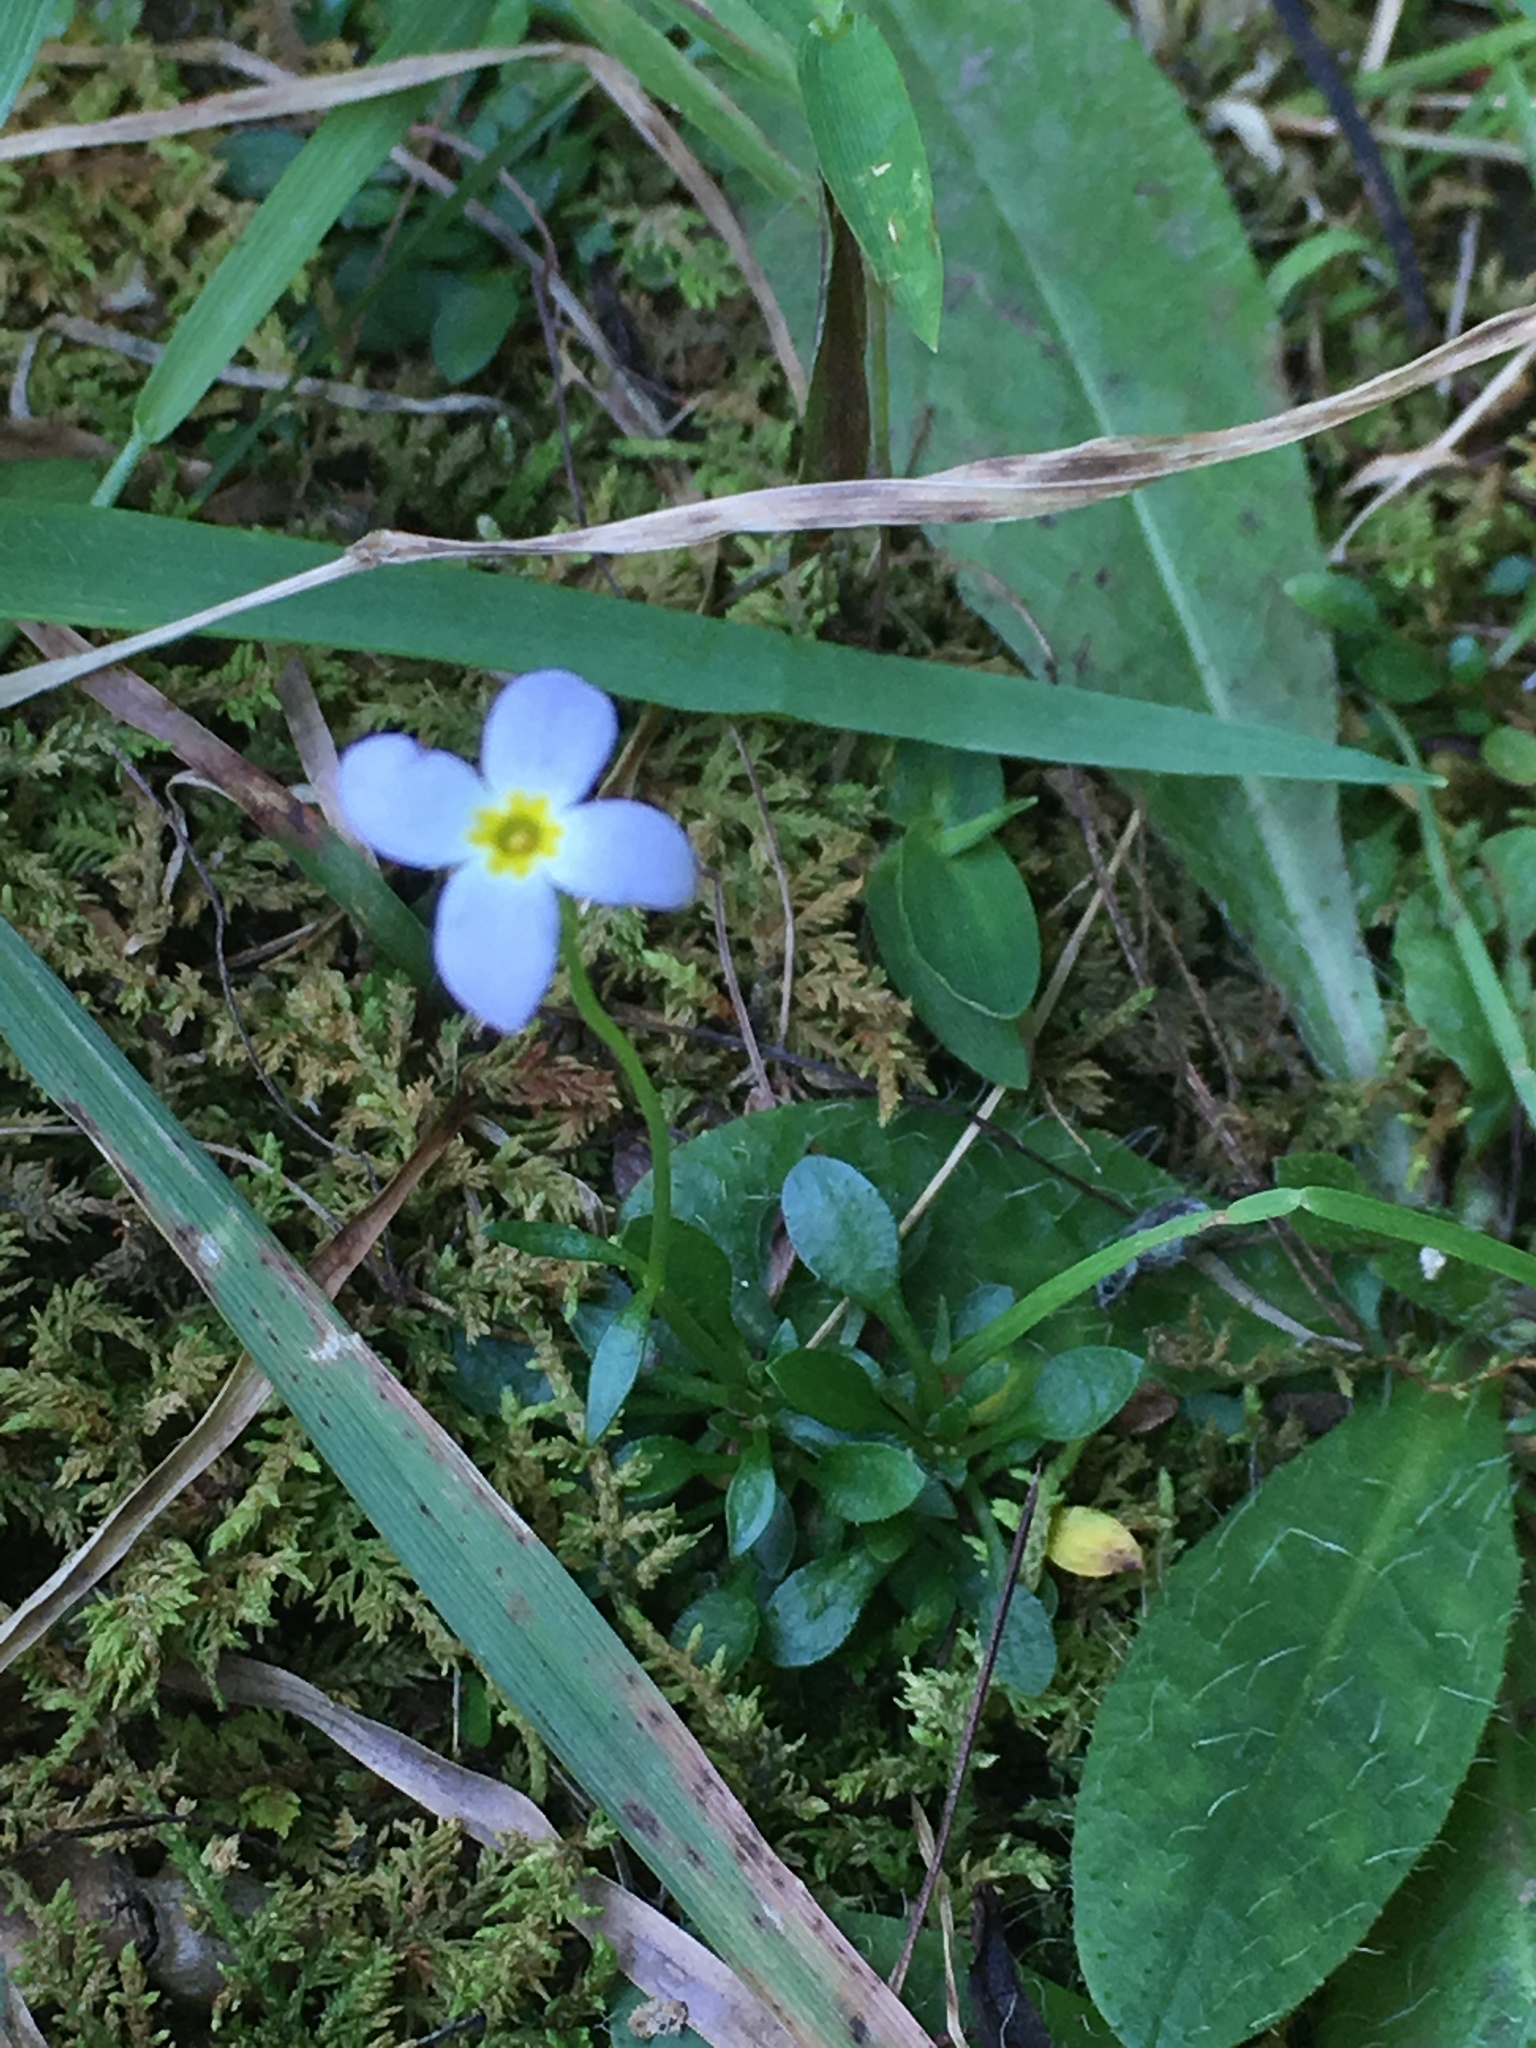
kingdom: Plantae
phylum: Tracheophyta
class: Magnoliopsida
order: Gentianales
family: Rubiaceae
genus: Houstonia
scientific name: Houstonia caerulea
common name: Bluets
